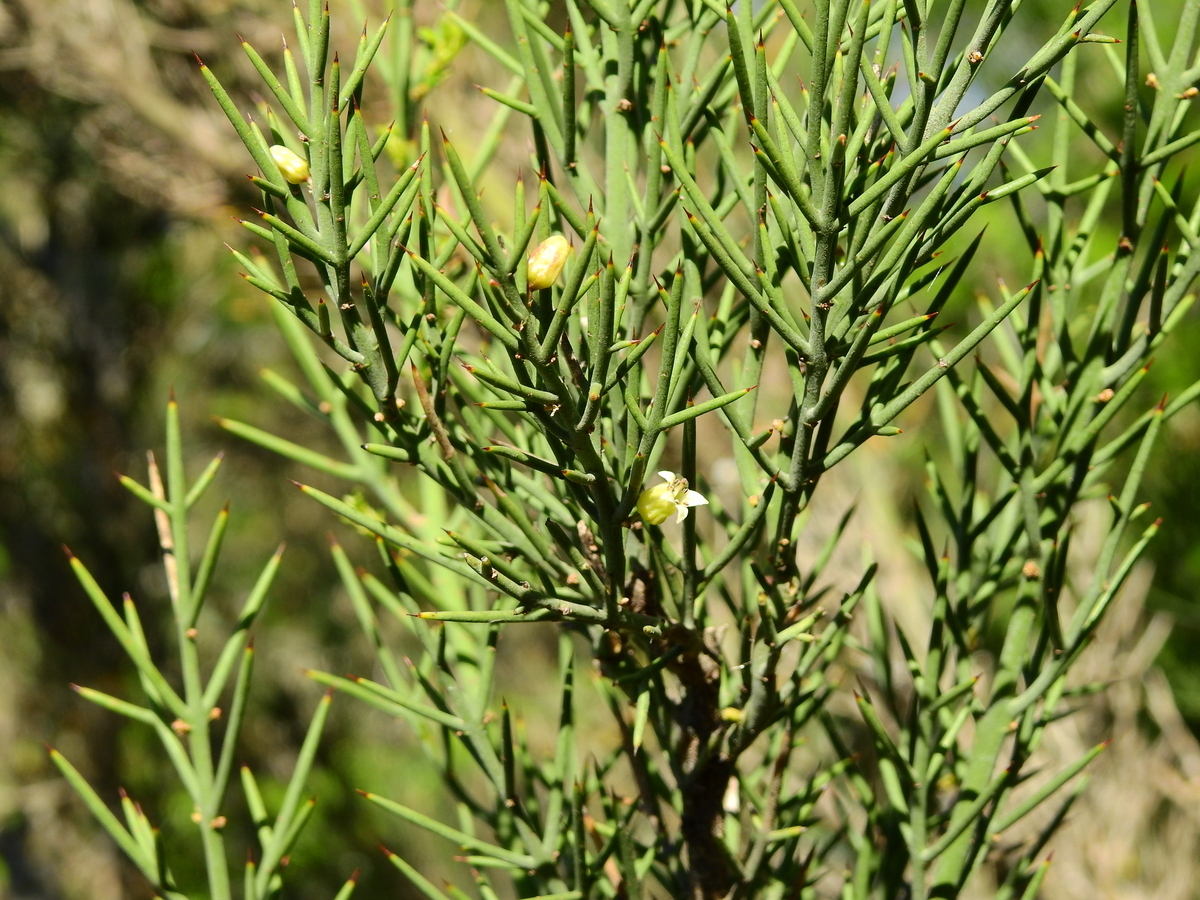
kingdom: Plantae
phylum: Tracheophyta
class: Magnoliopsida
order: Rosales
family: Rhamnaceae
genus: Colletia
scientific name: Colletia spinosissima
